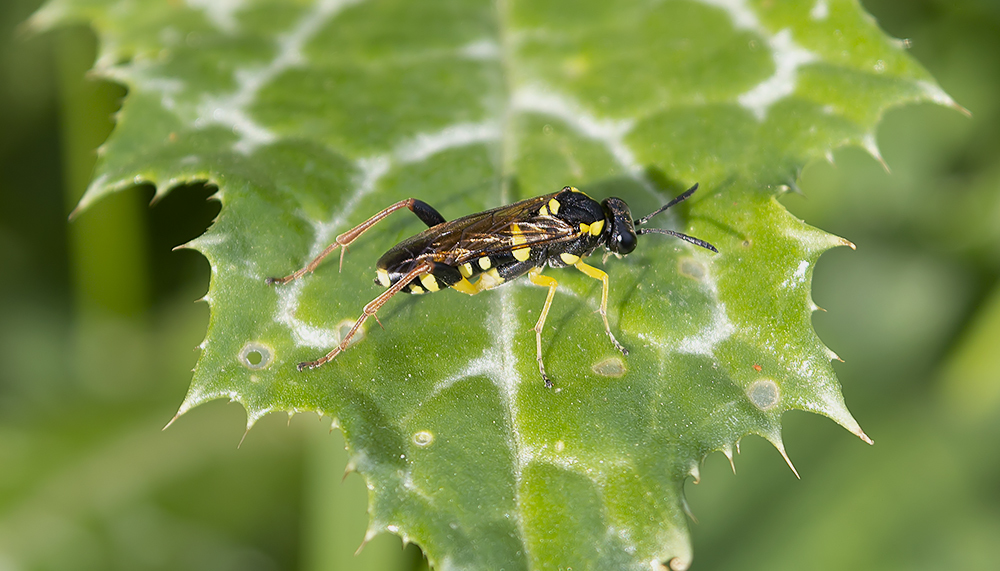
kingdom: Animalia
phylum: Arthropoda
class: Insecta
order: Hymenoptera
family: Tenthredinidae
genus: Macrophya
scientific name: Macrophya postica
